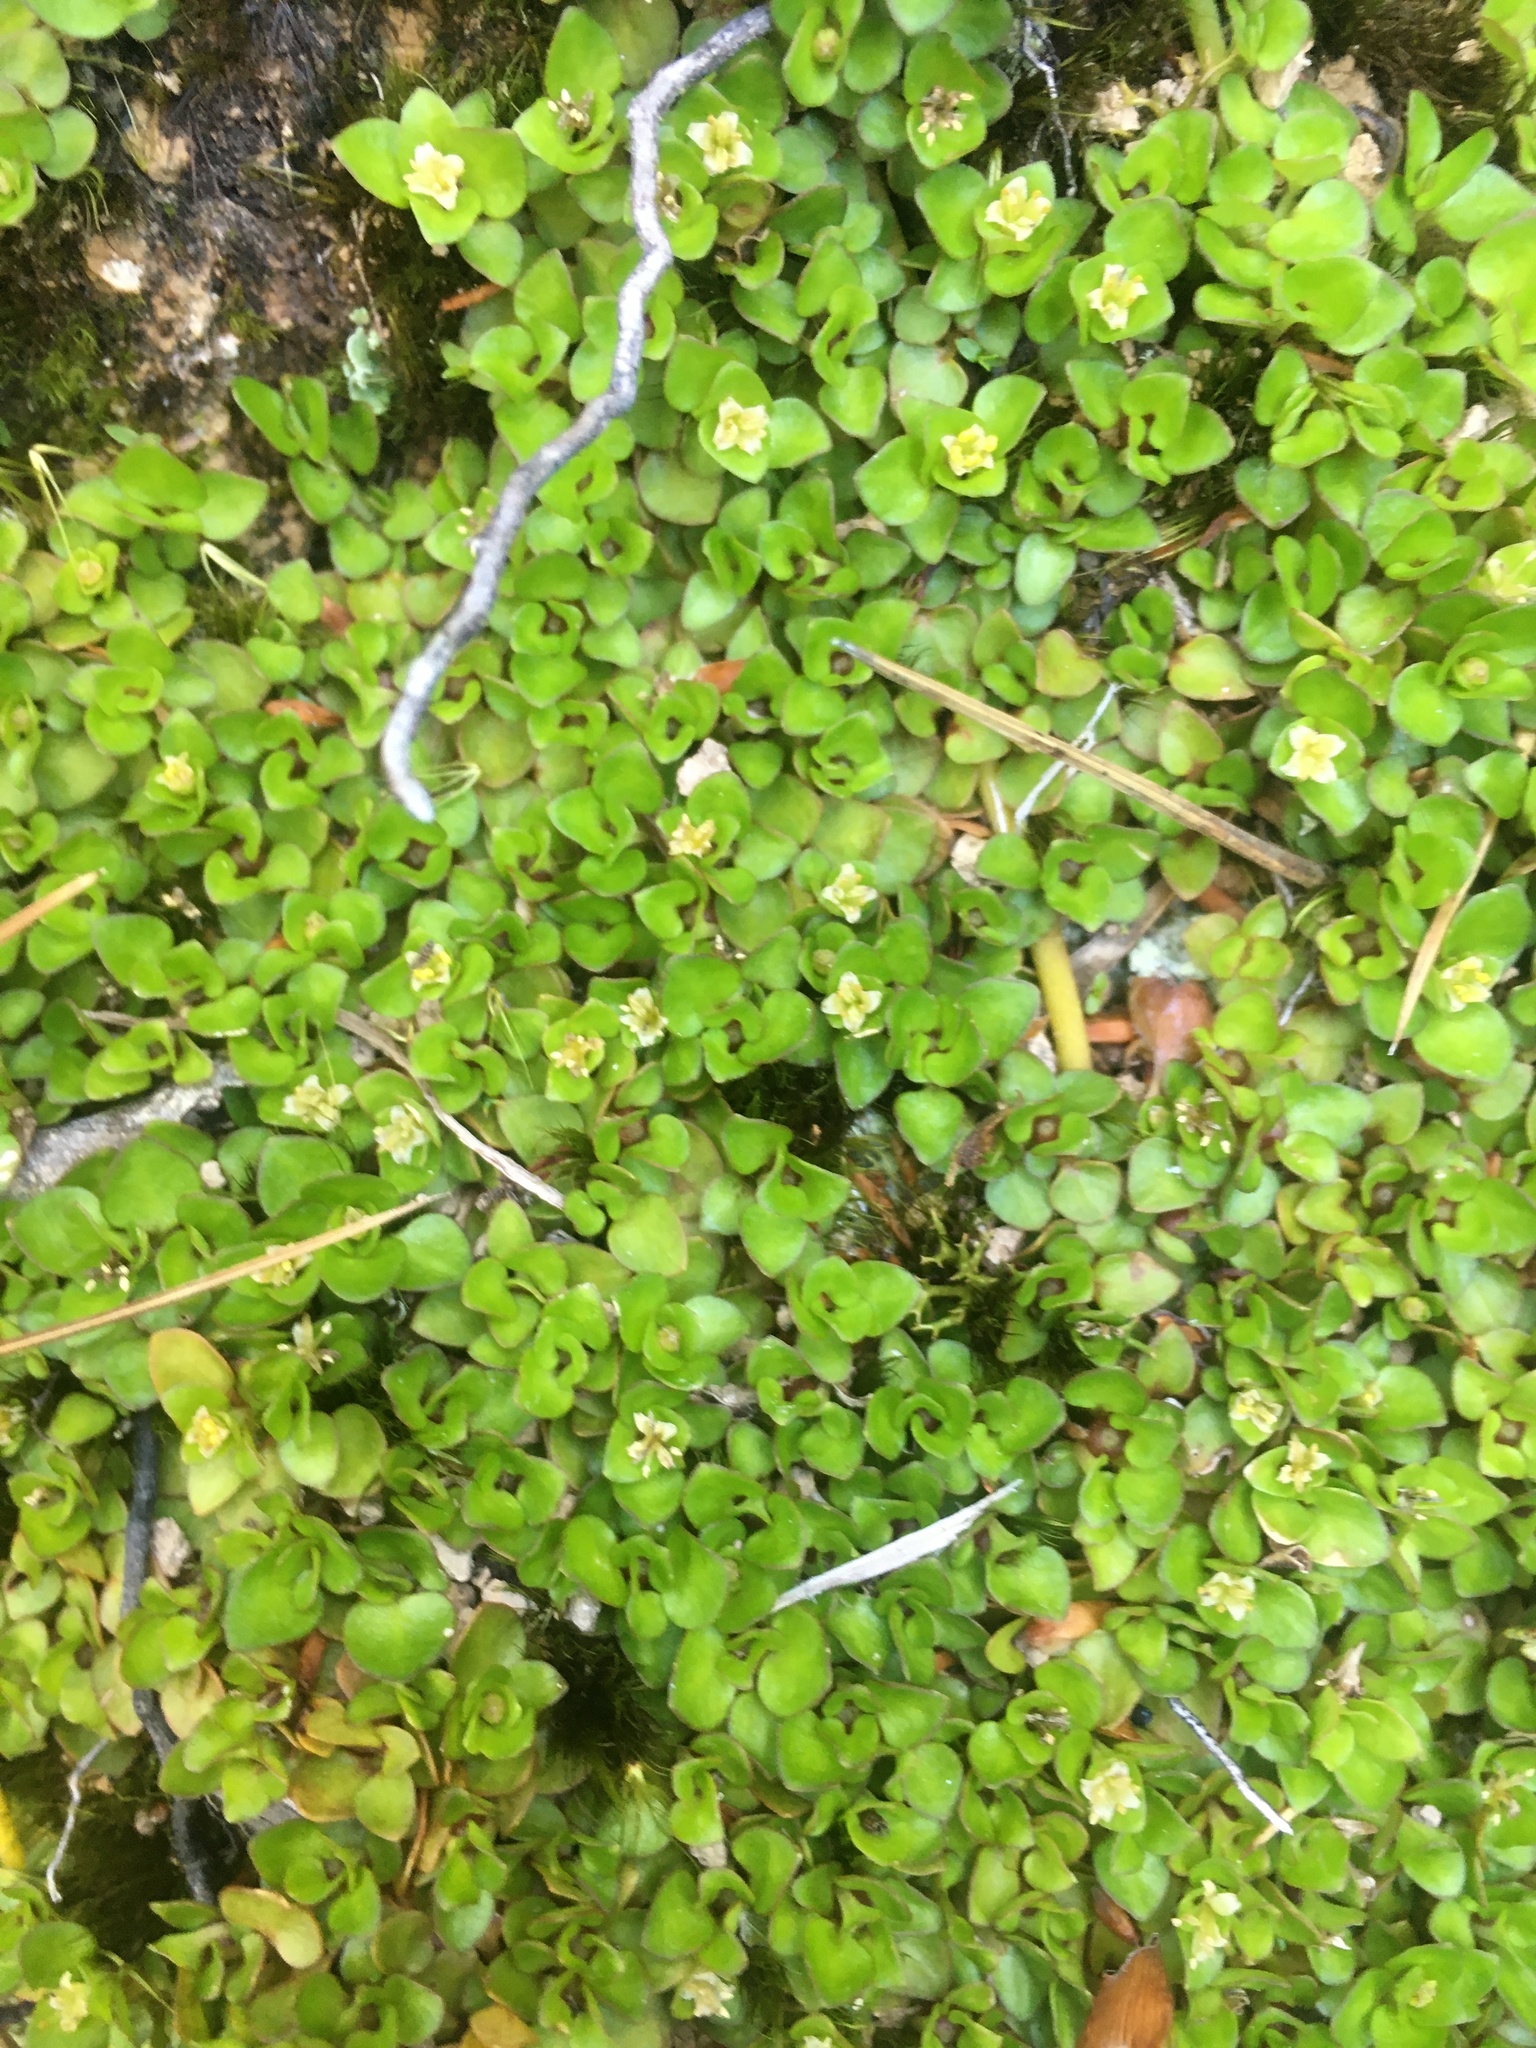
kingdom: Plantae
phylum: Tracheophyta
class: Magnoliopsida
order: Gentianales
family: Rubiaceae
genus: Nertera
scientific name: Nertera granadensis
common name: Beadplant
